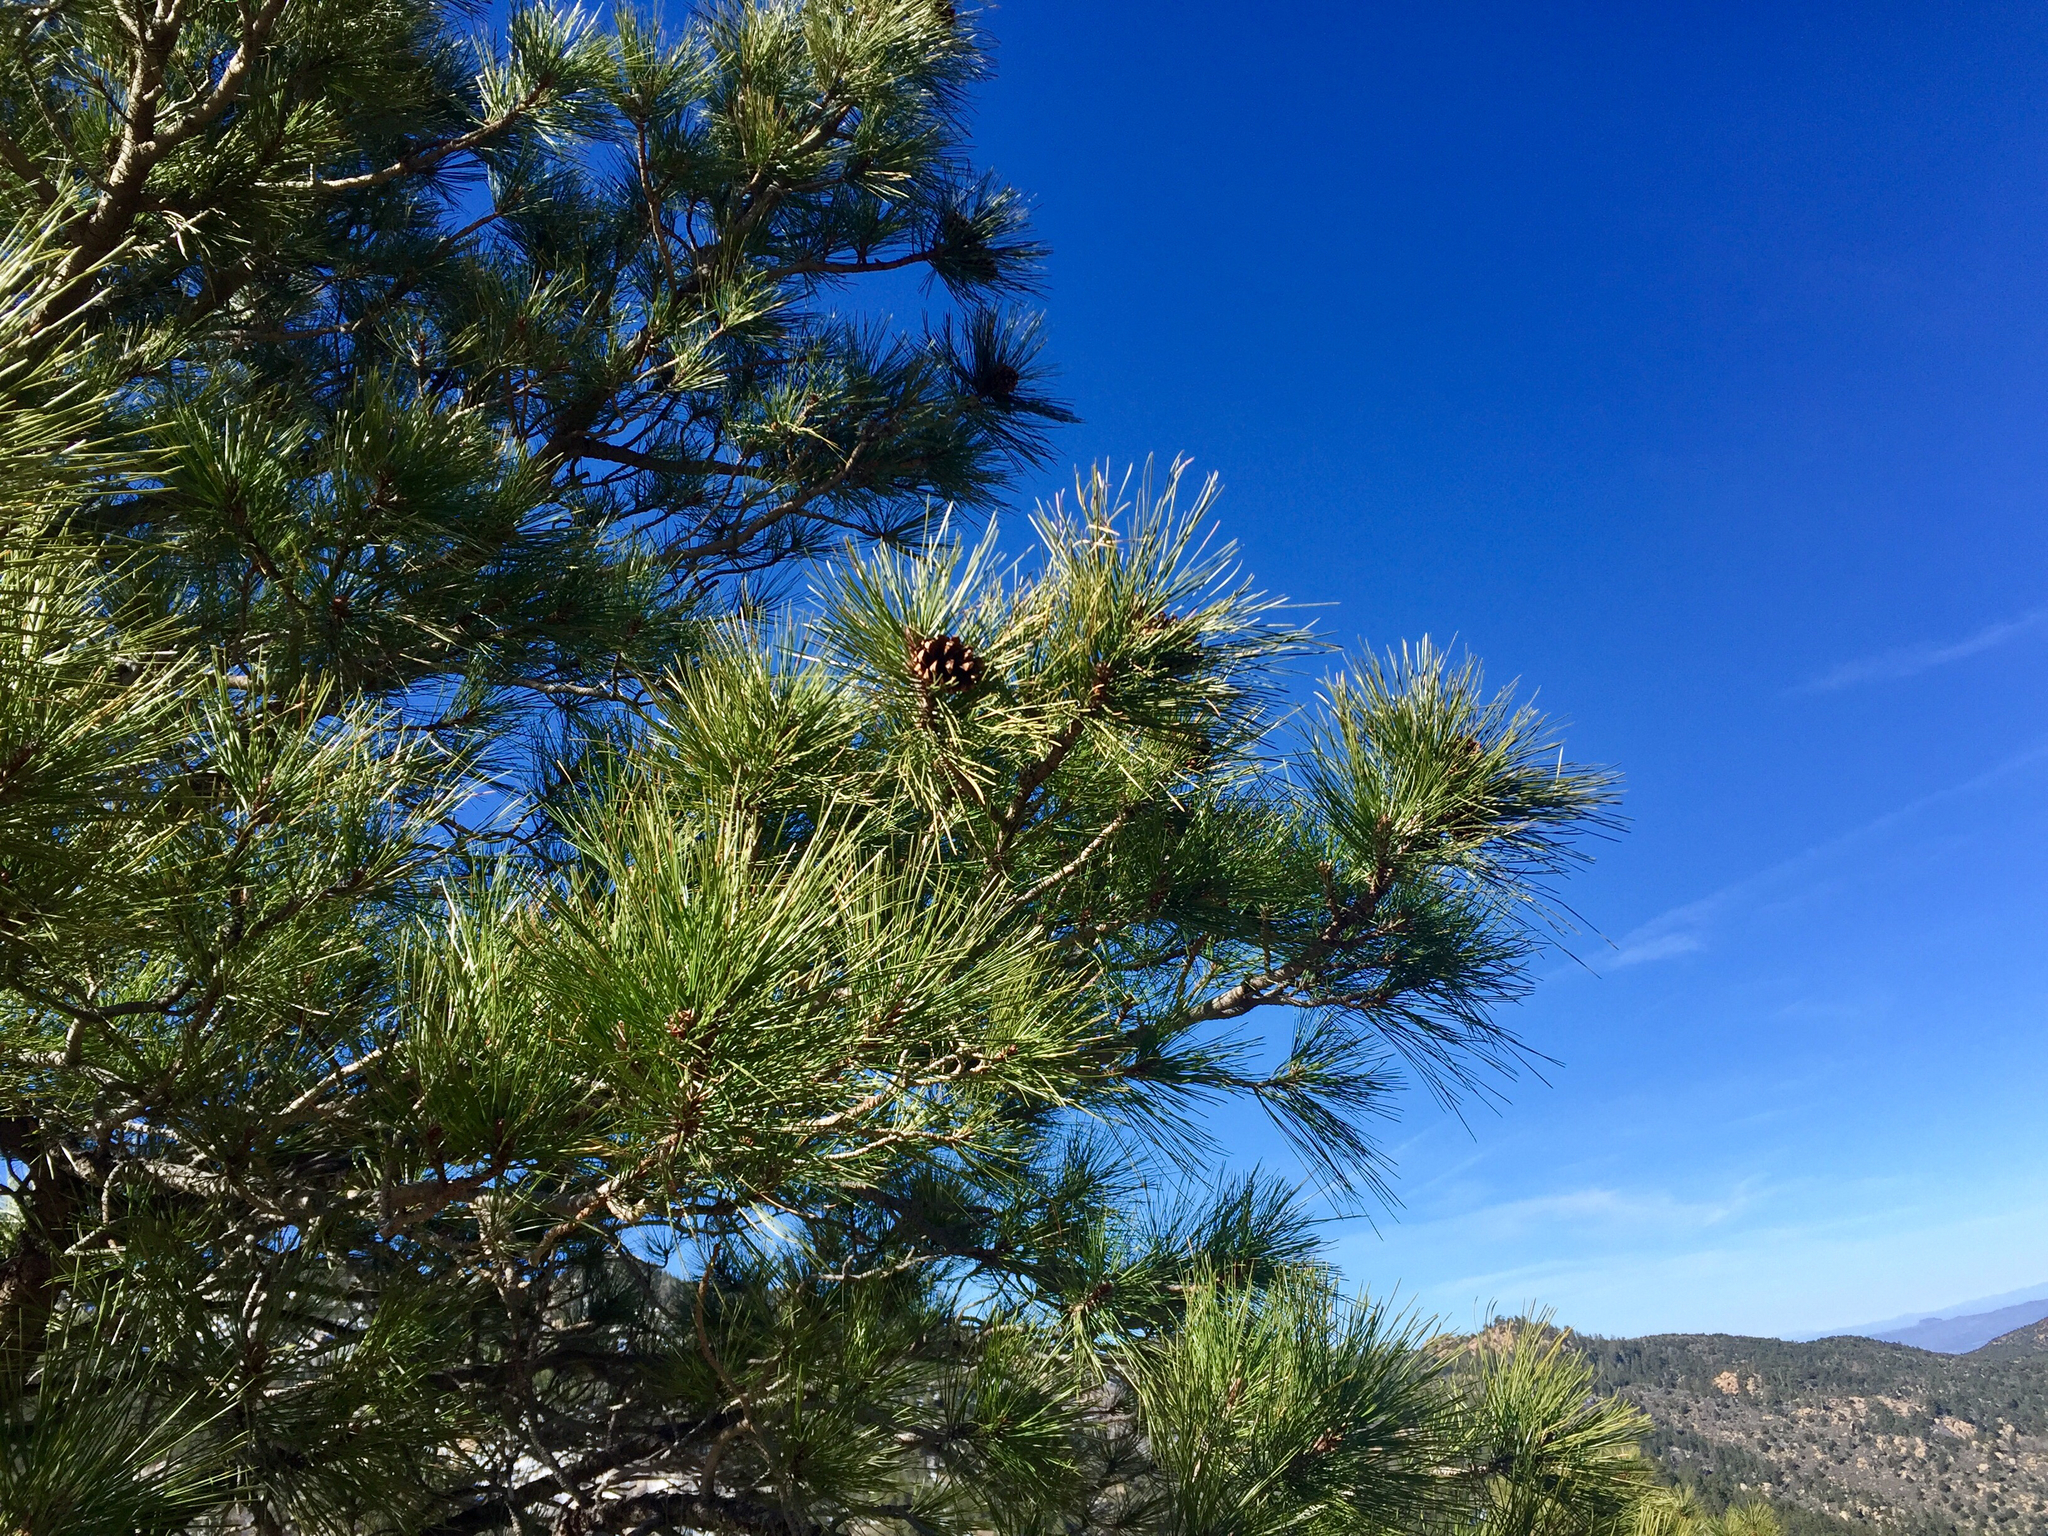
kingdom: Plantae
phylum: Tracheophyta
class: Pinopsida
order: Pinales
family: Pinaceae
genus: Pinus
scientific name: Pinus ponderosa
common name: Western yellow-pine
